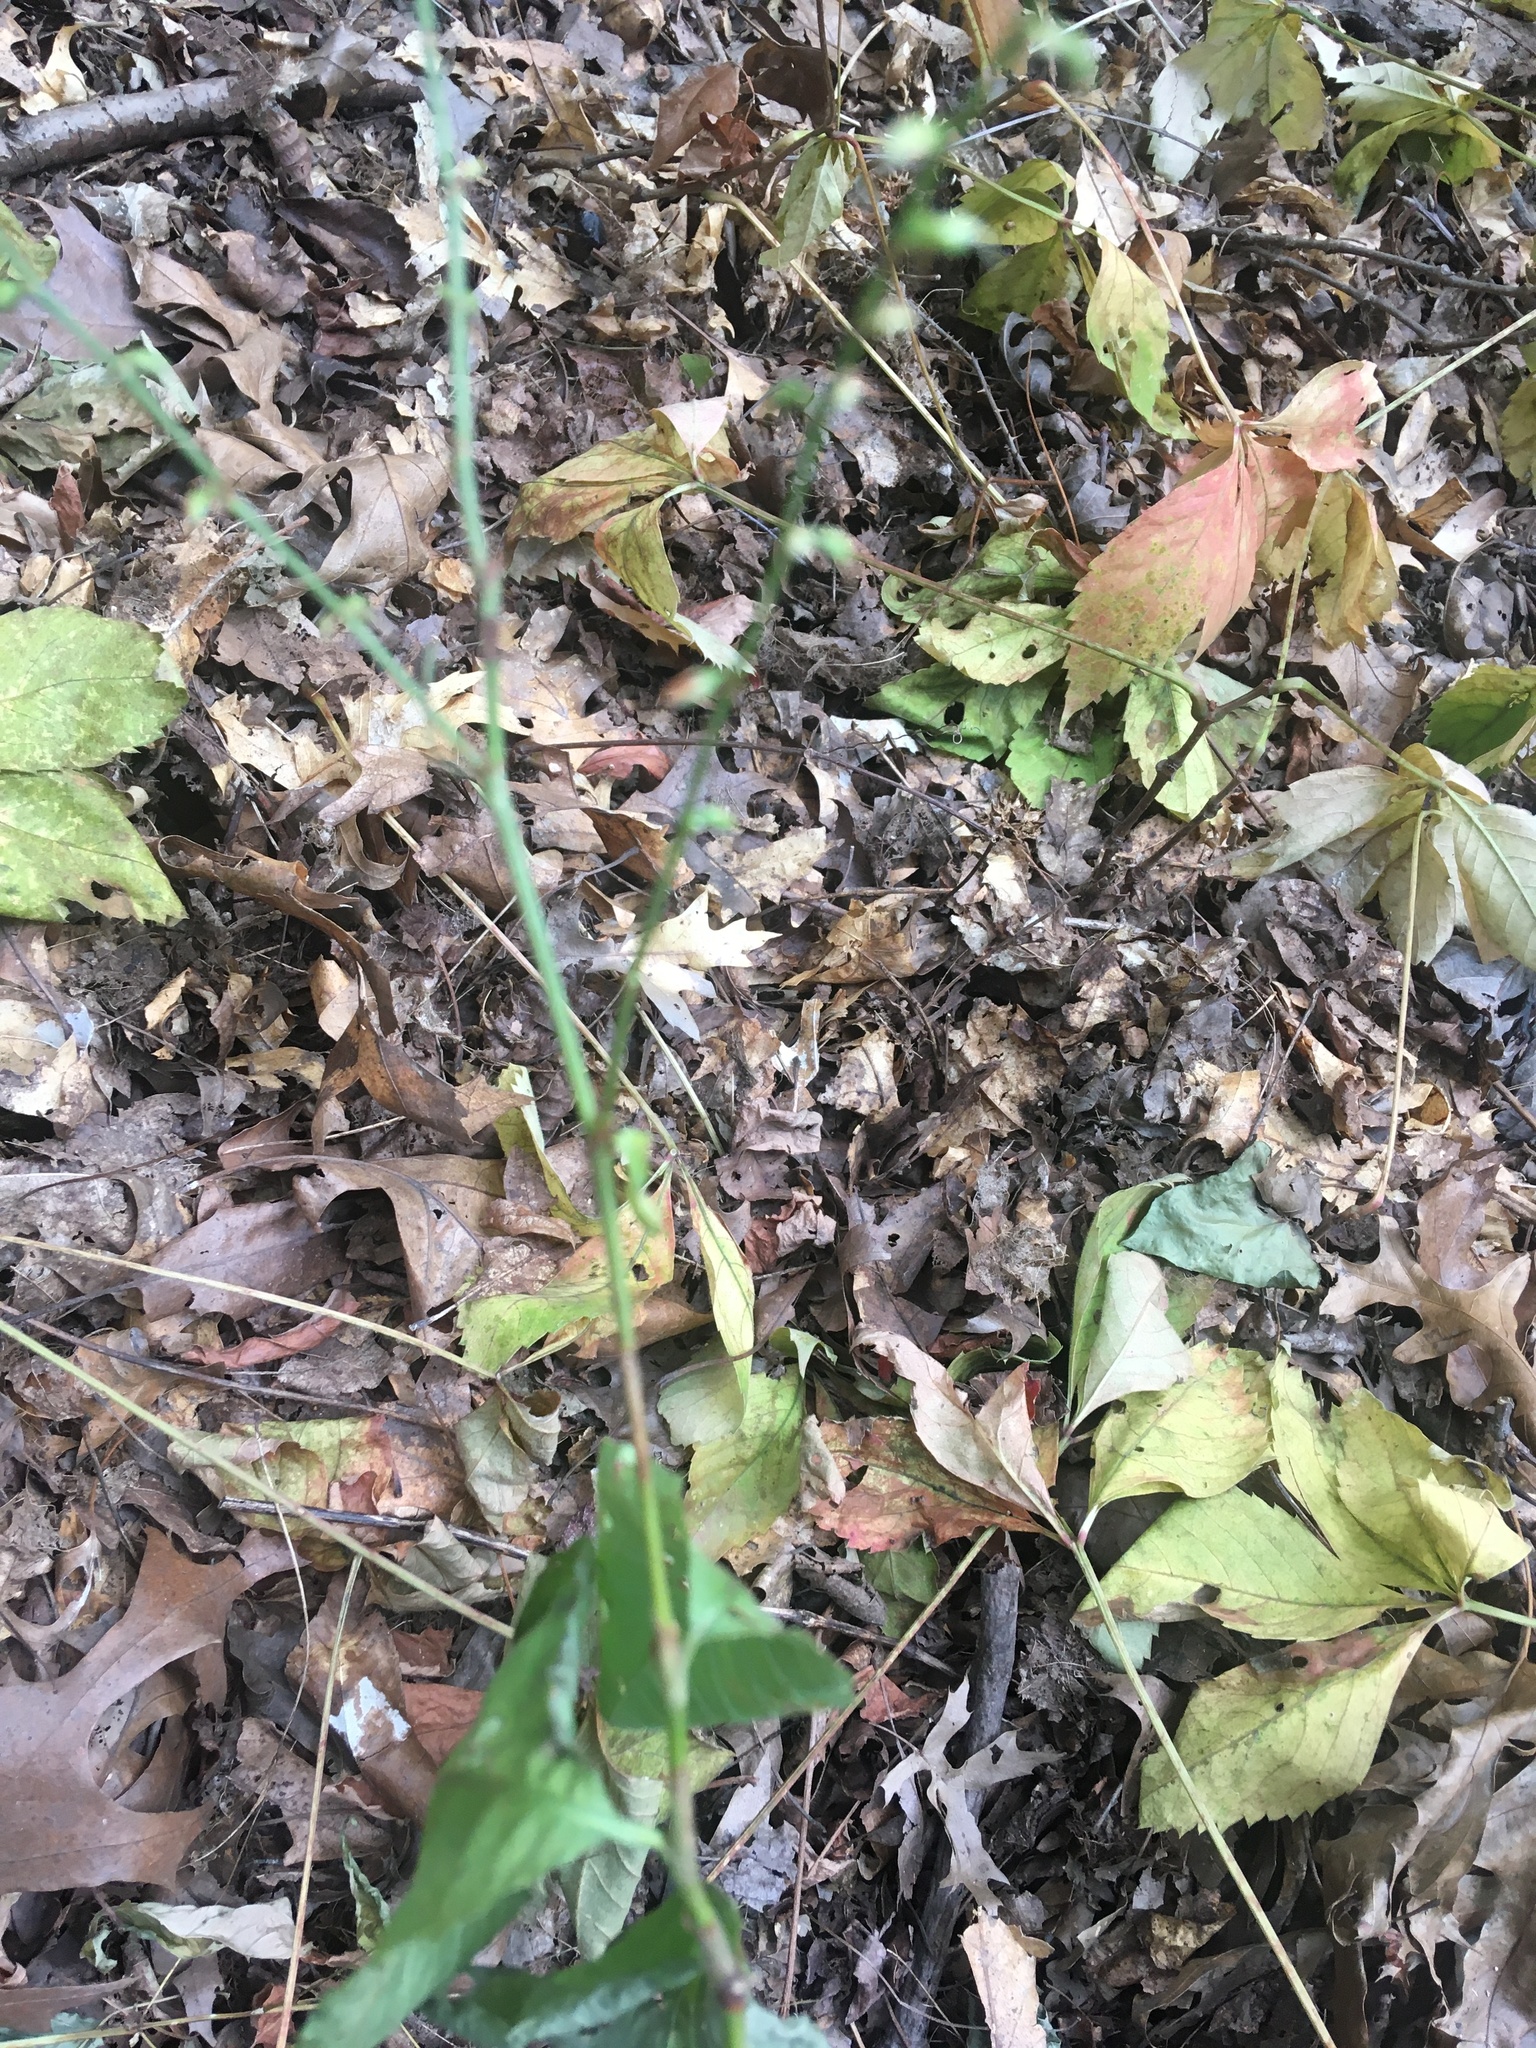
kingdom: Plantae
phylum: Tracheophyta
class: Magnoliopsida
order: Caryophyllales
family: Polygonaceae
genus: Persicaria
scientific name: Persicaria virginiana
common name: Jumpseed
